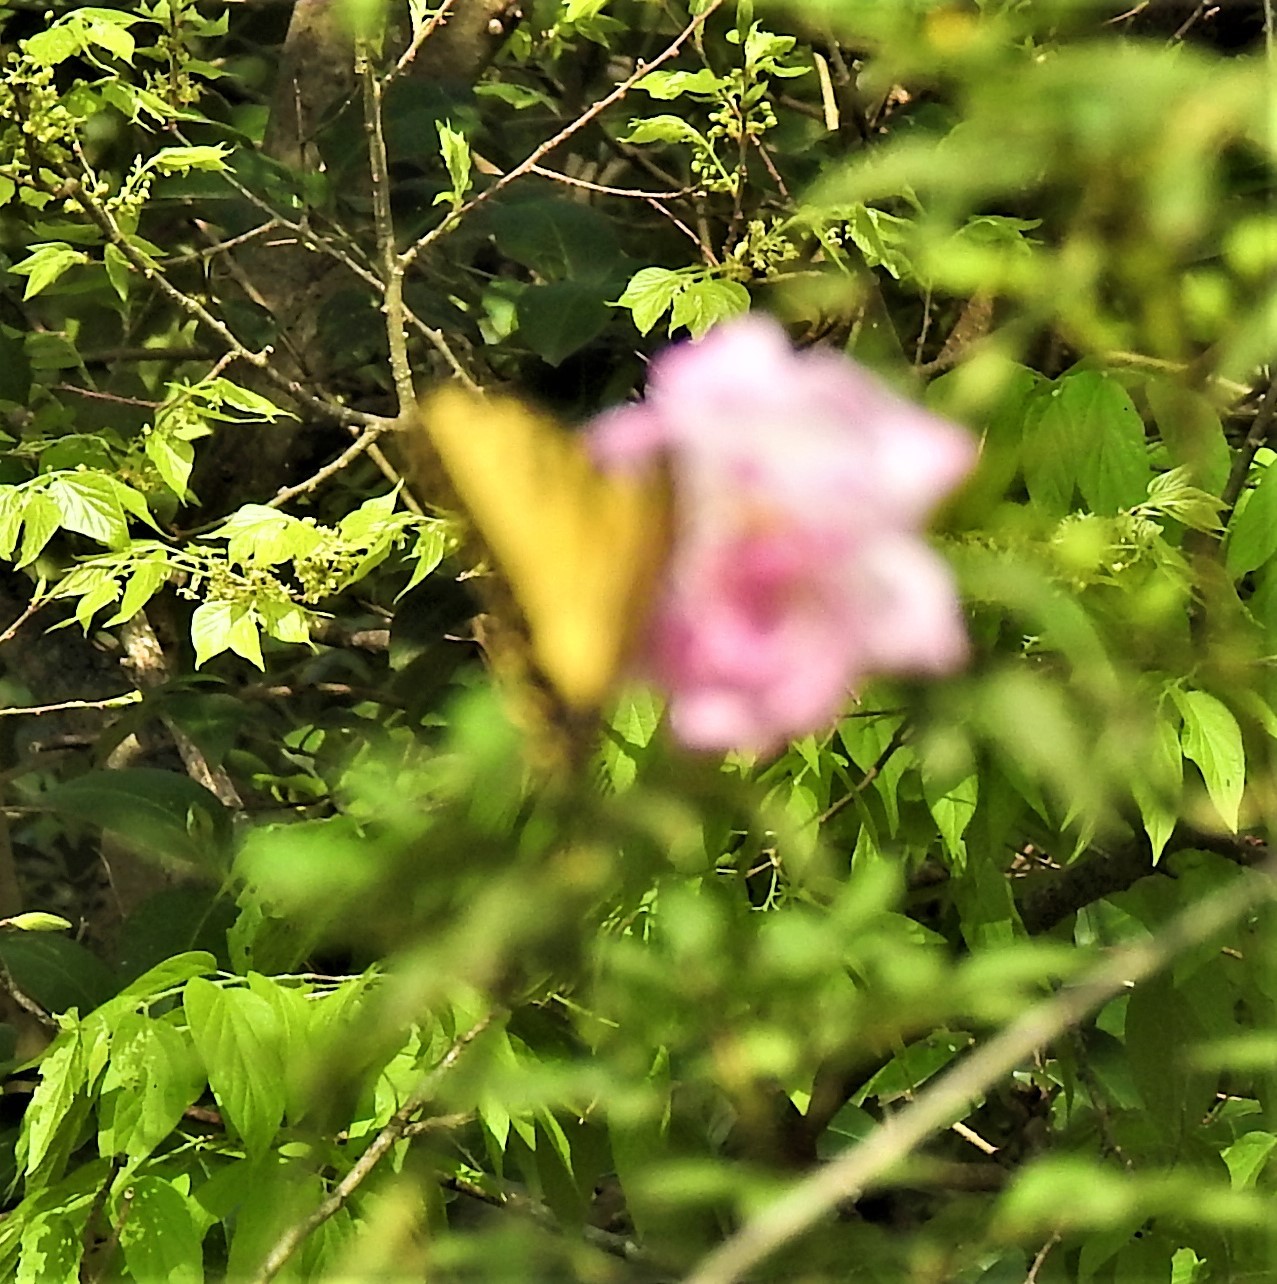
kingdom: Animalia
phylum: Arthropoda
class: Insecta
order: Lepidoptera
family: Papilionidae
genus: Papilio
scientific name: Papilio glaucus
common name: Tiger swallowtail
